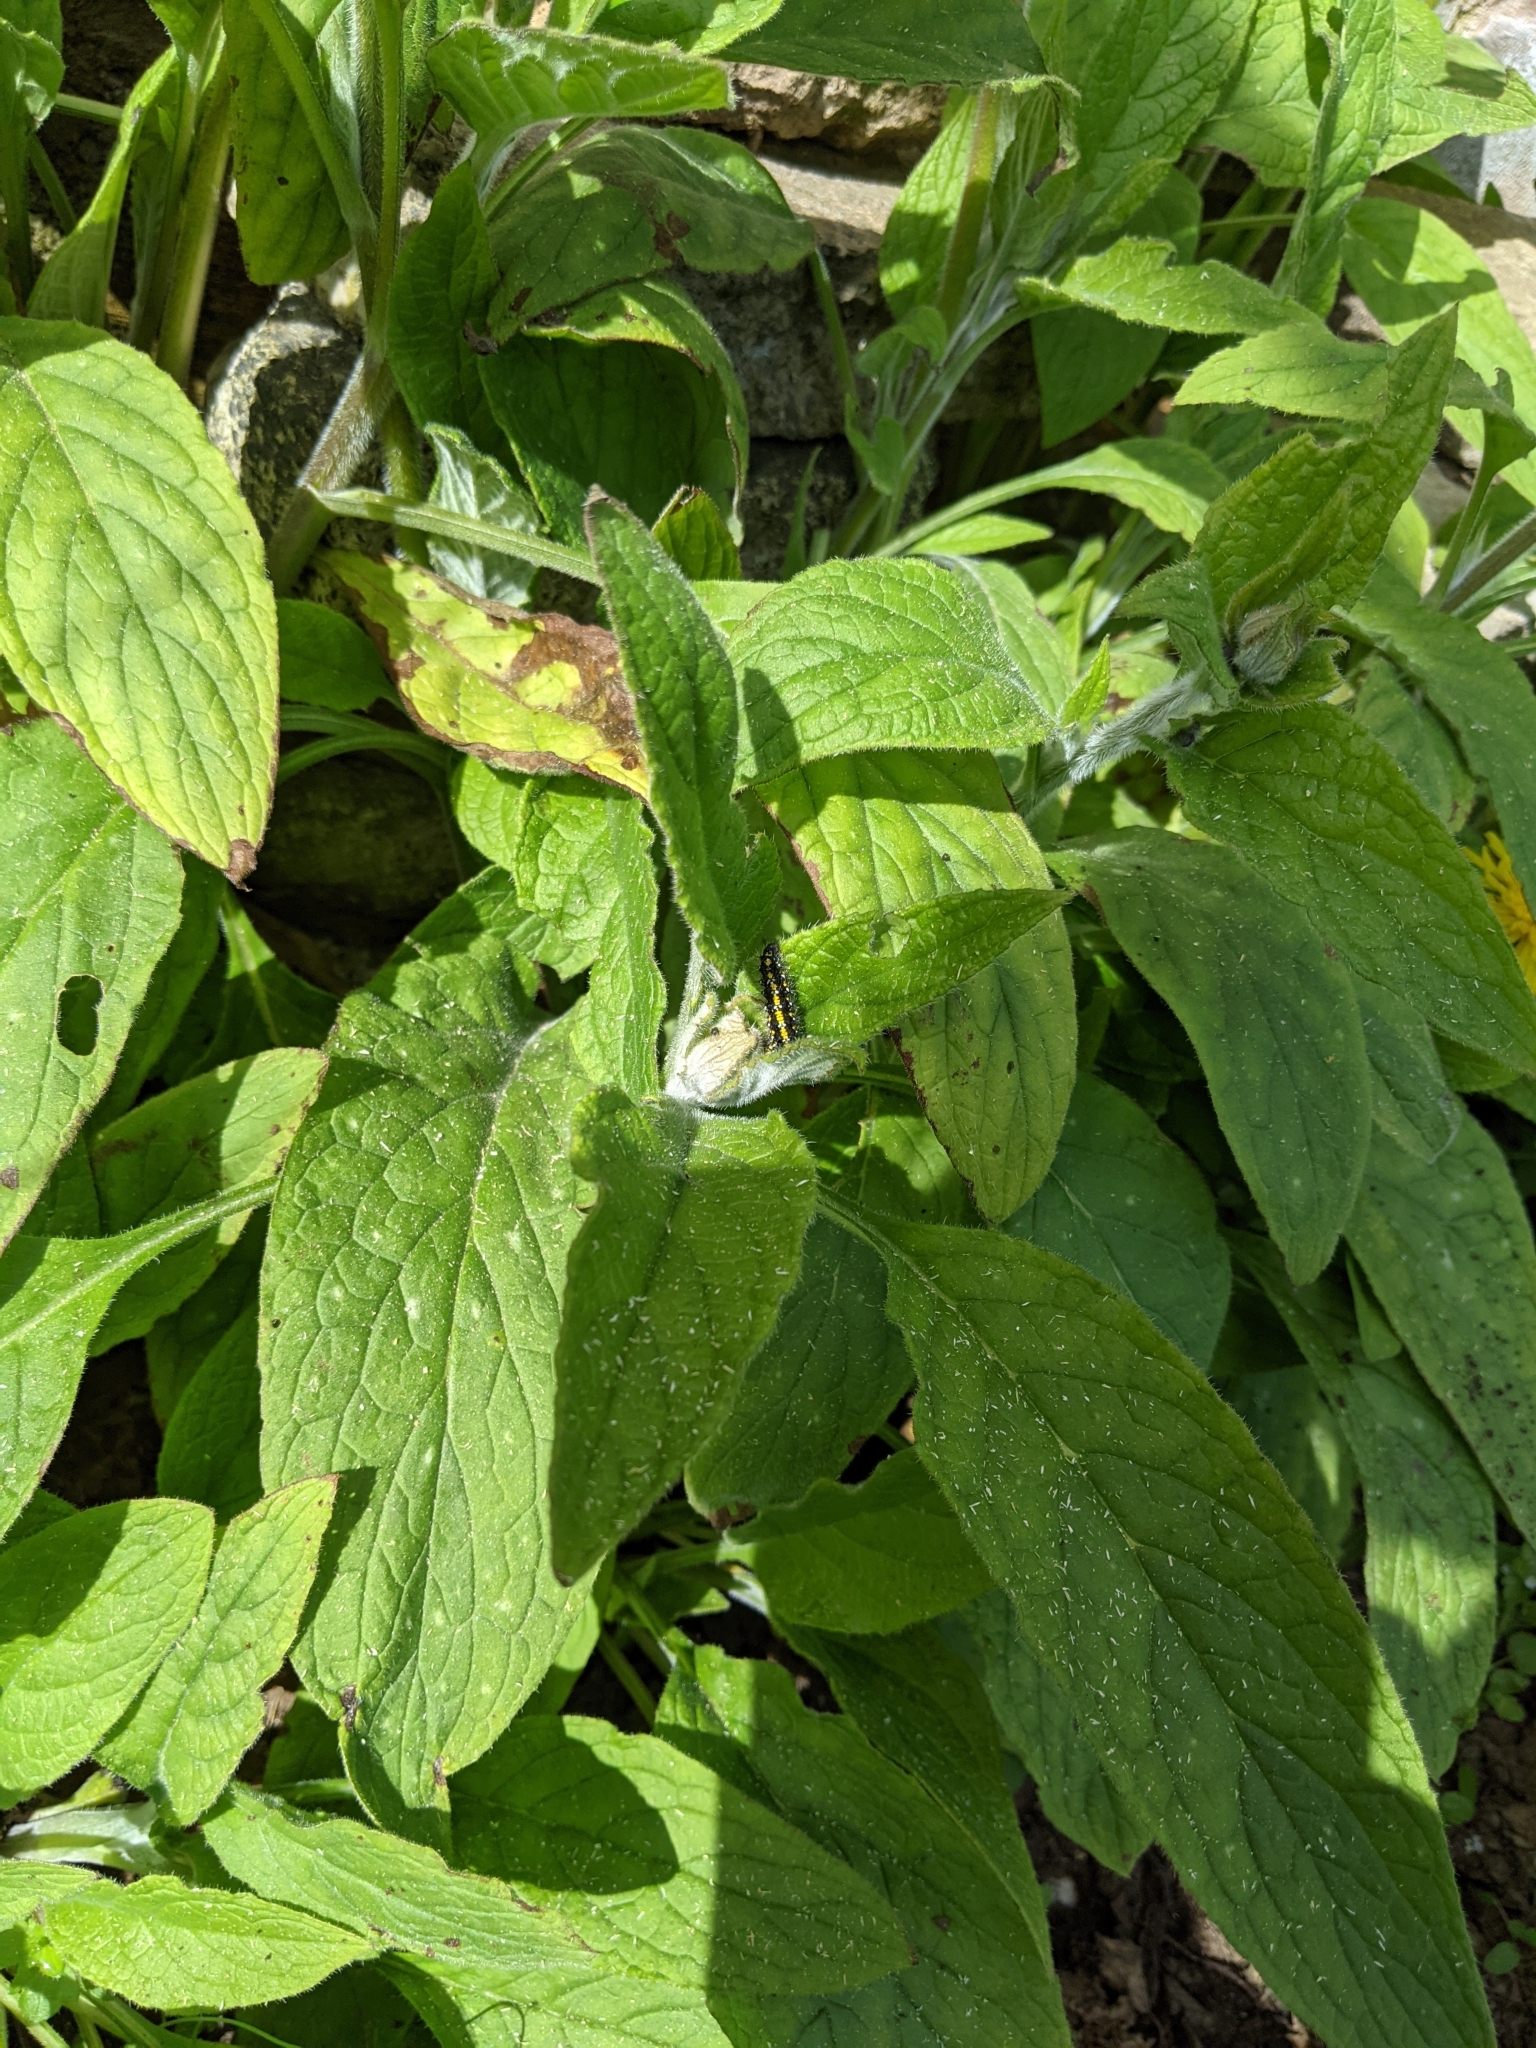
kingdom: Animalia
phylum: Arthropoda
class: Insecta
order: Lepidoptera
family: Erebidae
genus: Callimorpha
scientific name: Callimorpha dominula
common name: Scarlet tiger
